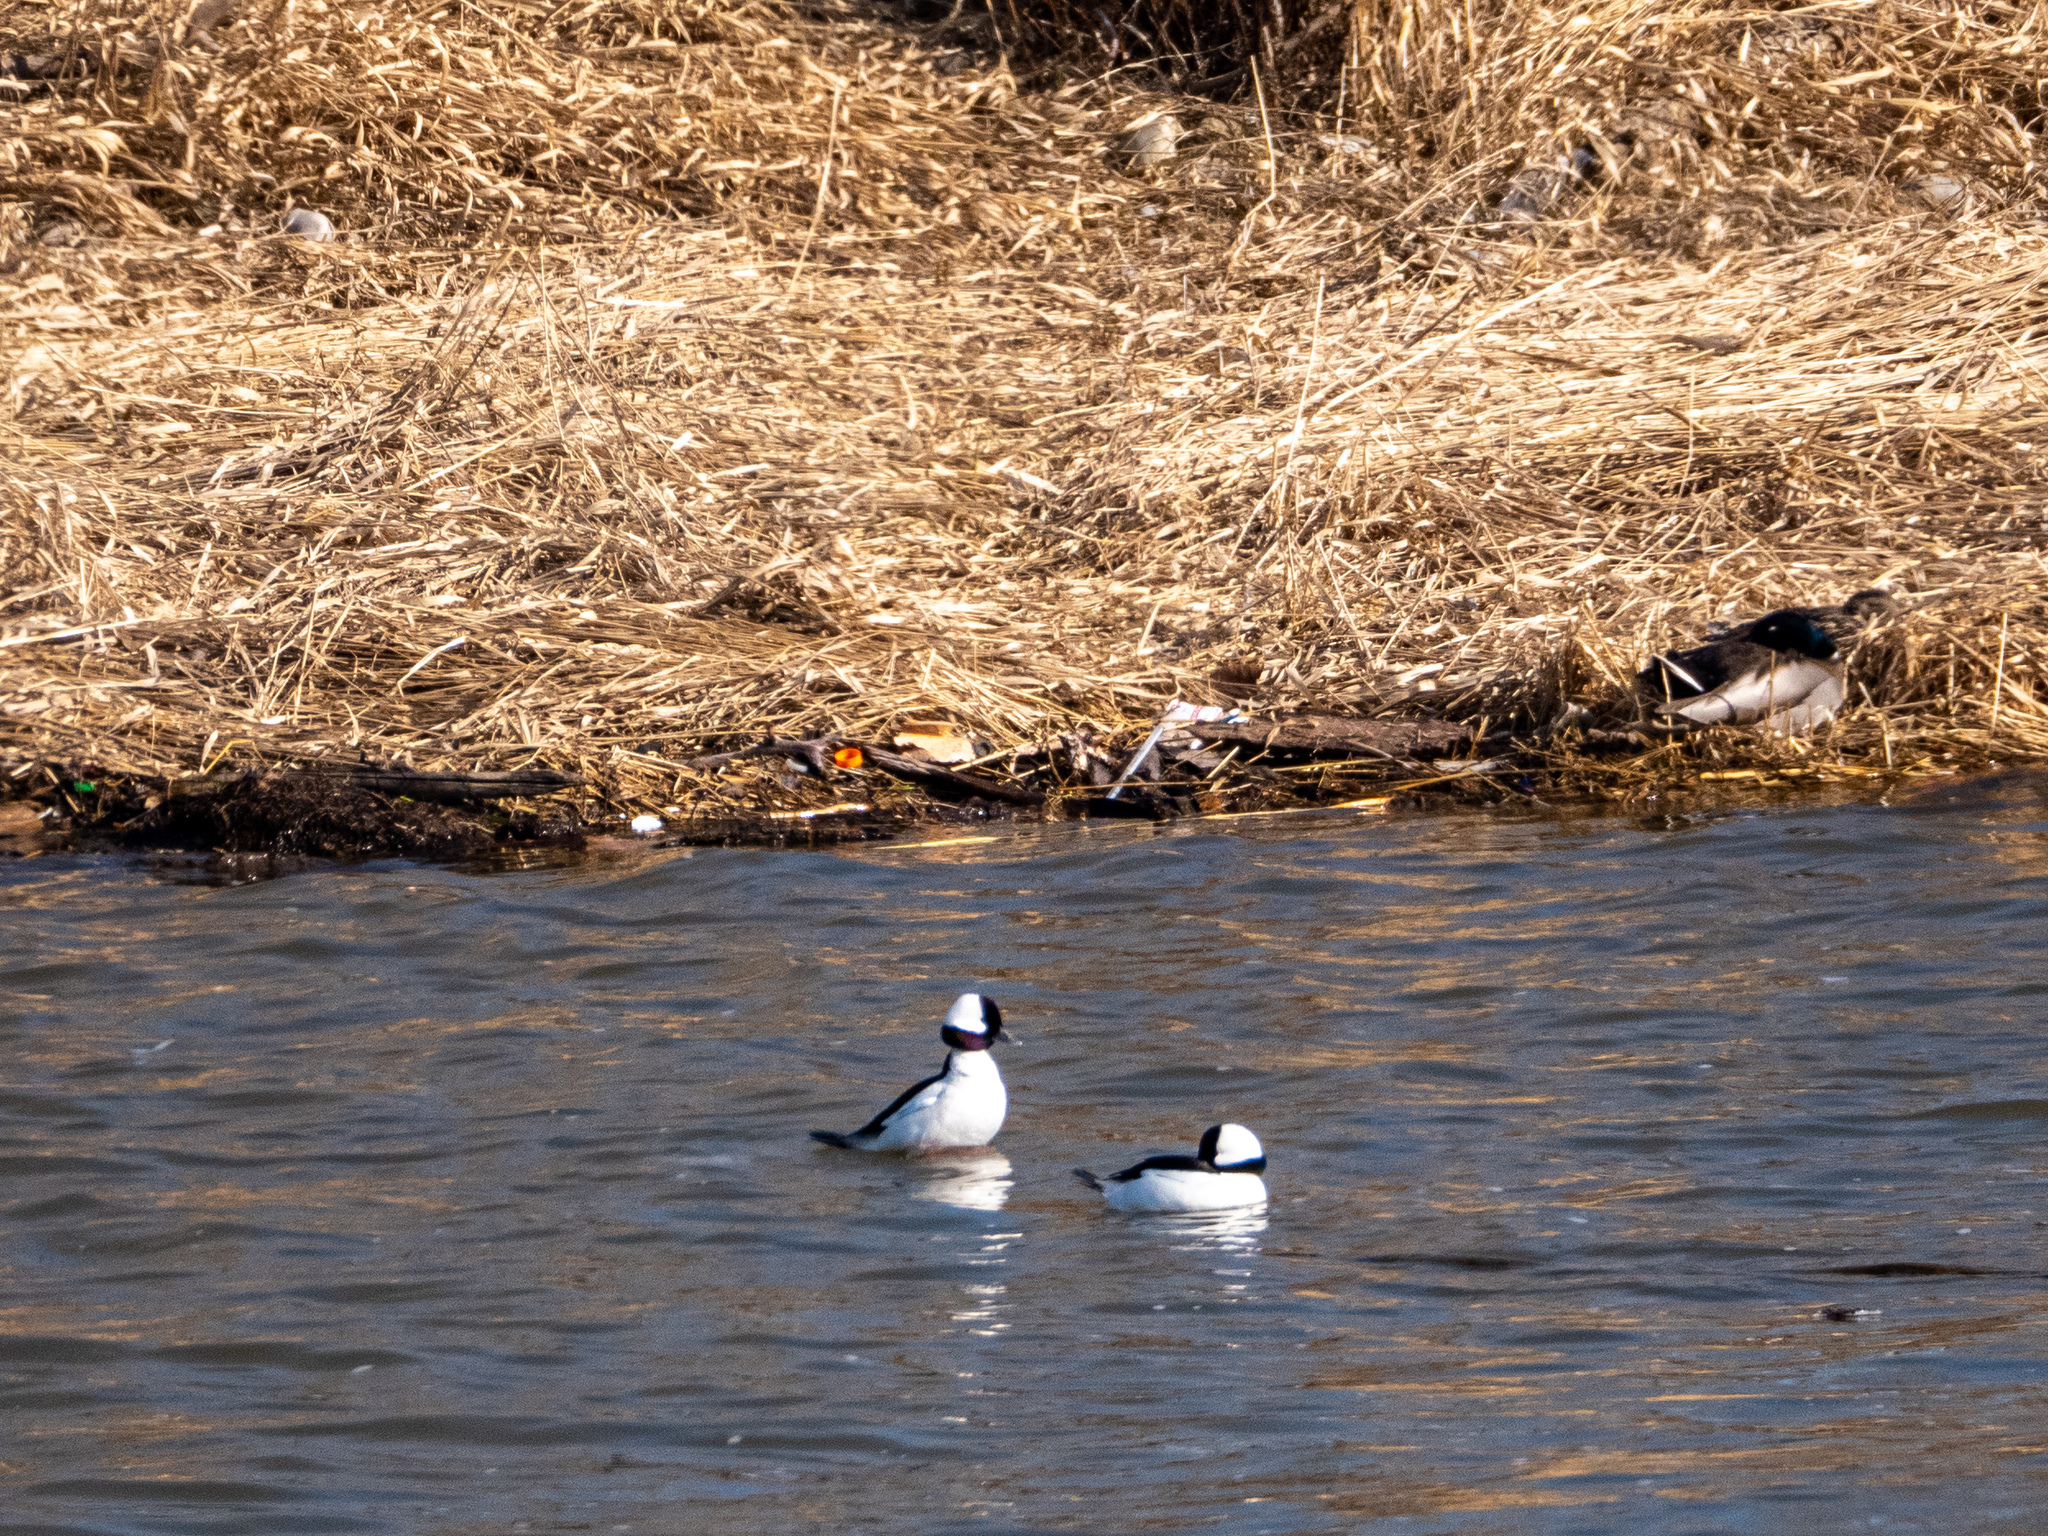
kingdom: Animalia
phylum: Chordata
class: Aves
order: Anseriformes
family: Anatidae
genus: Bucephala
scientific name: Bucephala albeola
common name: Bufflehead
